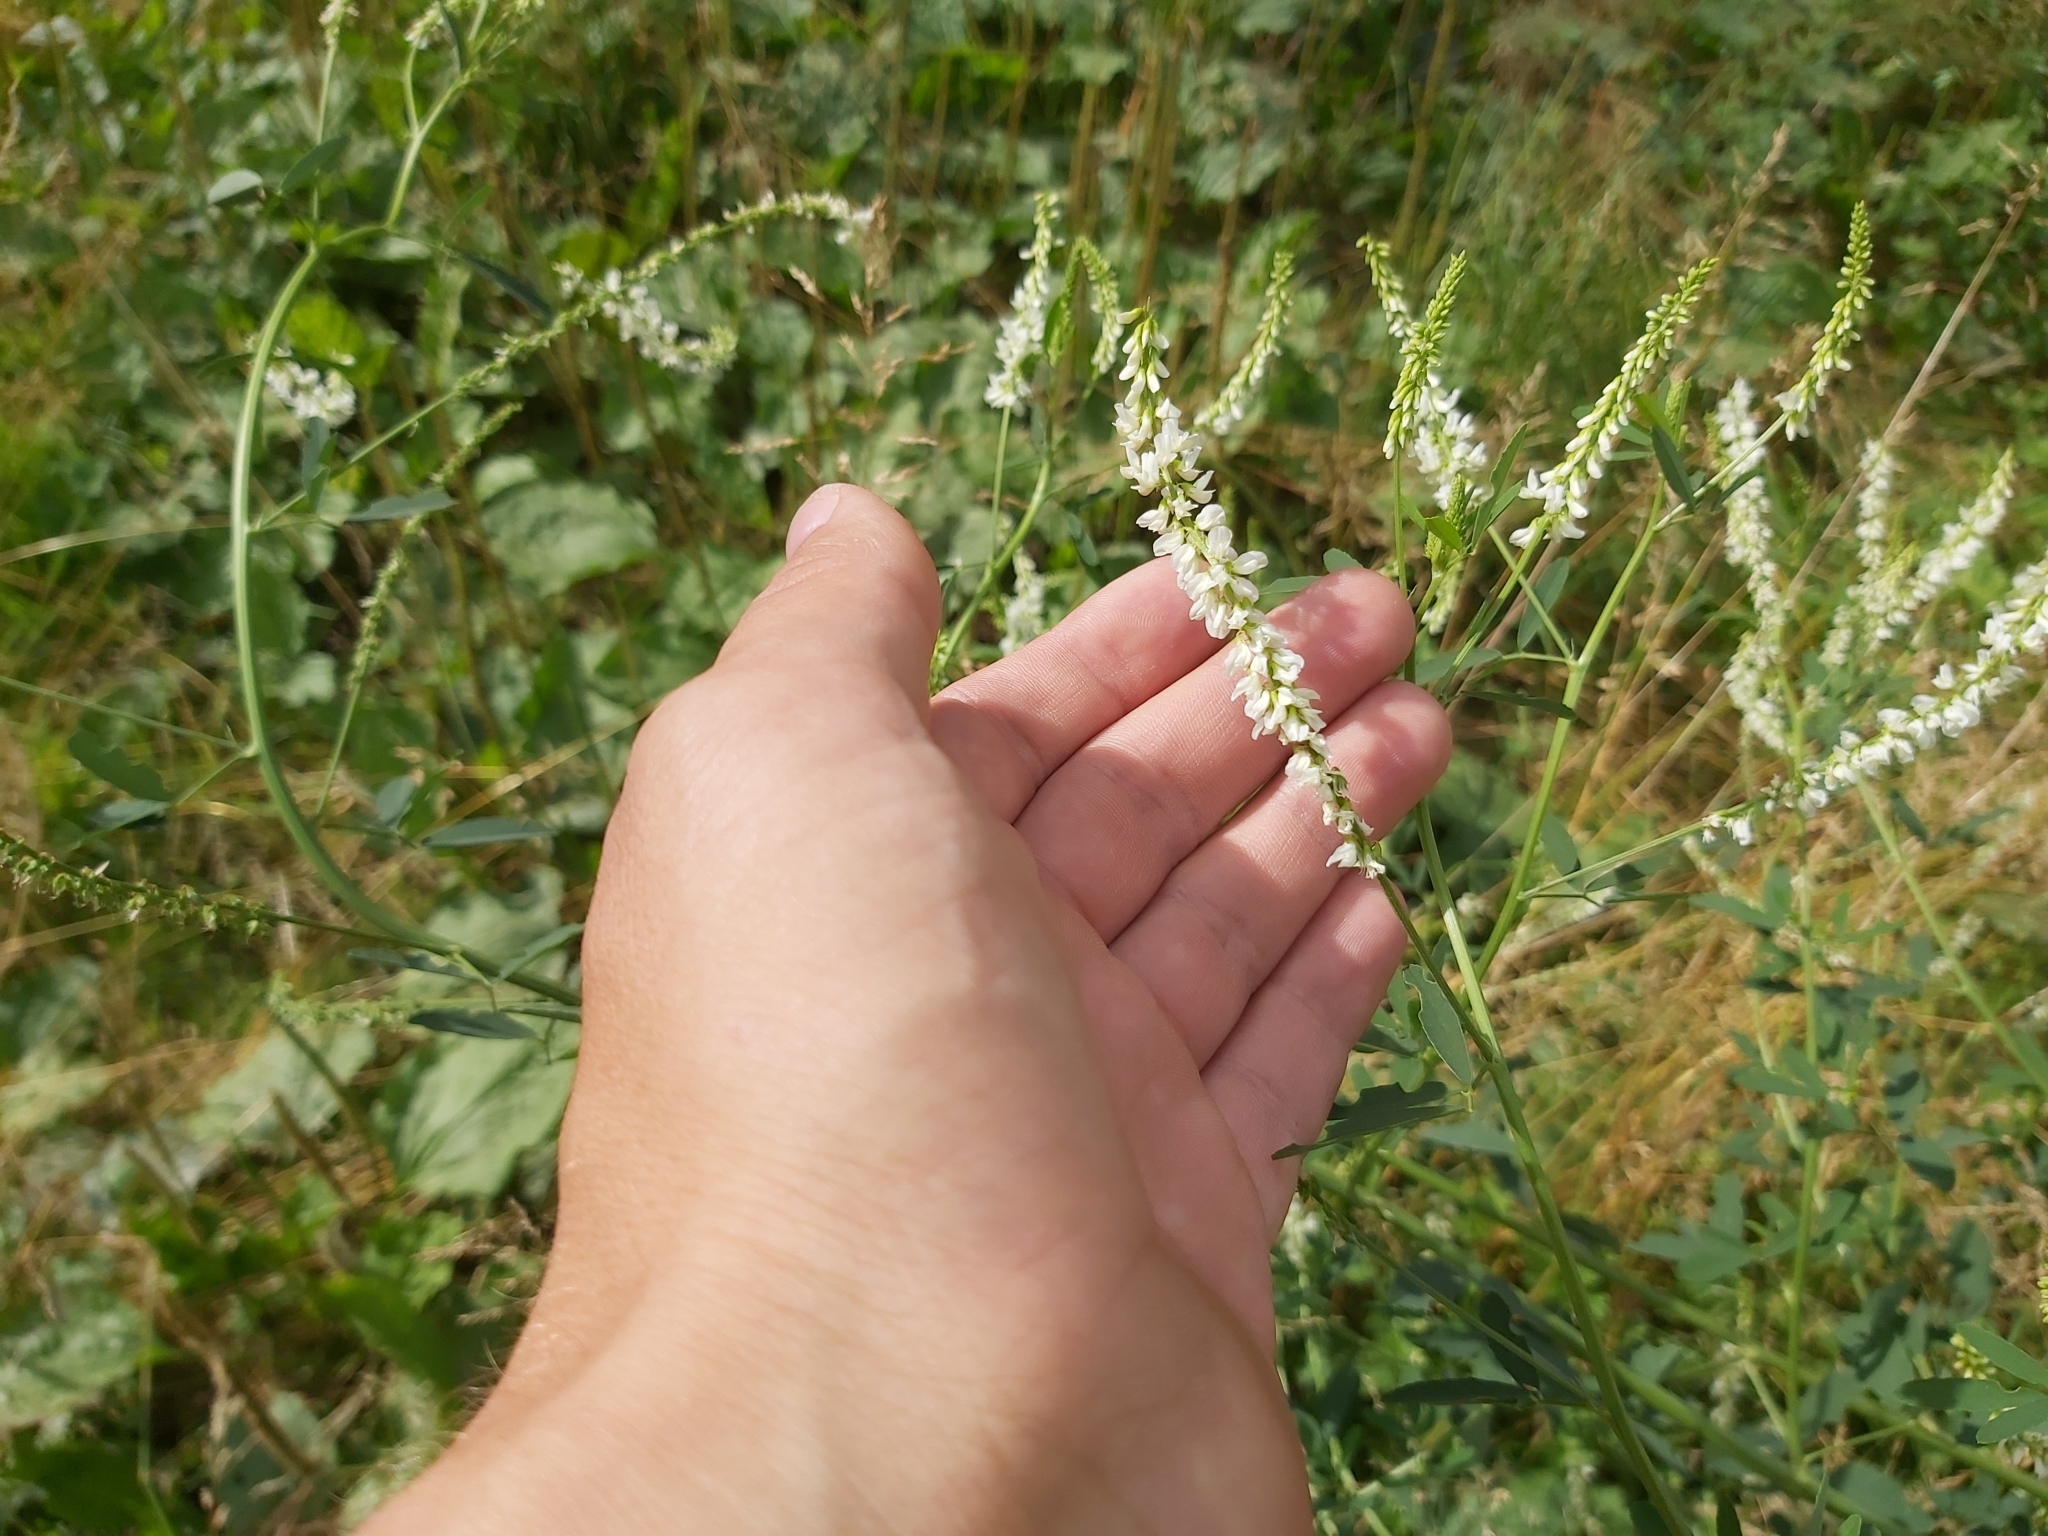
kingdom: Plantae
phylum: Tracheophyta
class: Magnoliopsida
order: Fabales
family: Fabaceae
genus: Melilotus
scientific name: Melilotus albus
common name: White melilot
